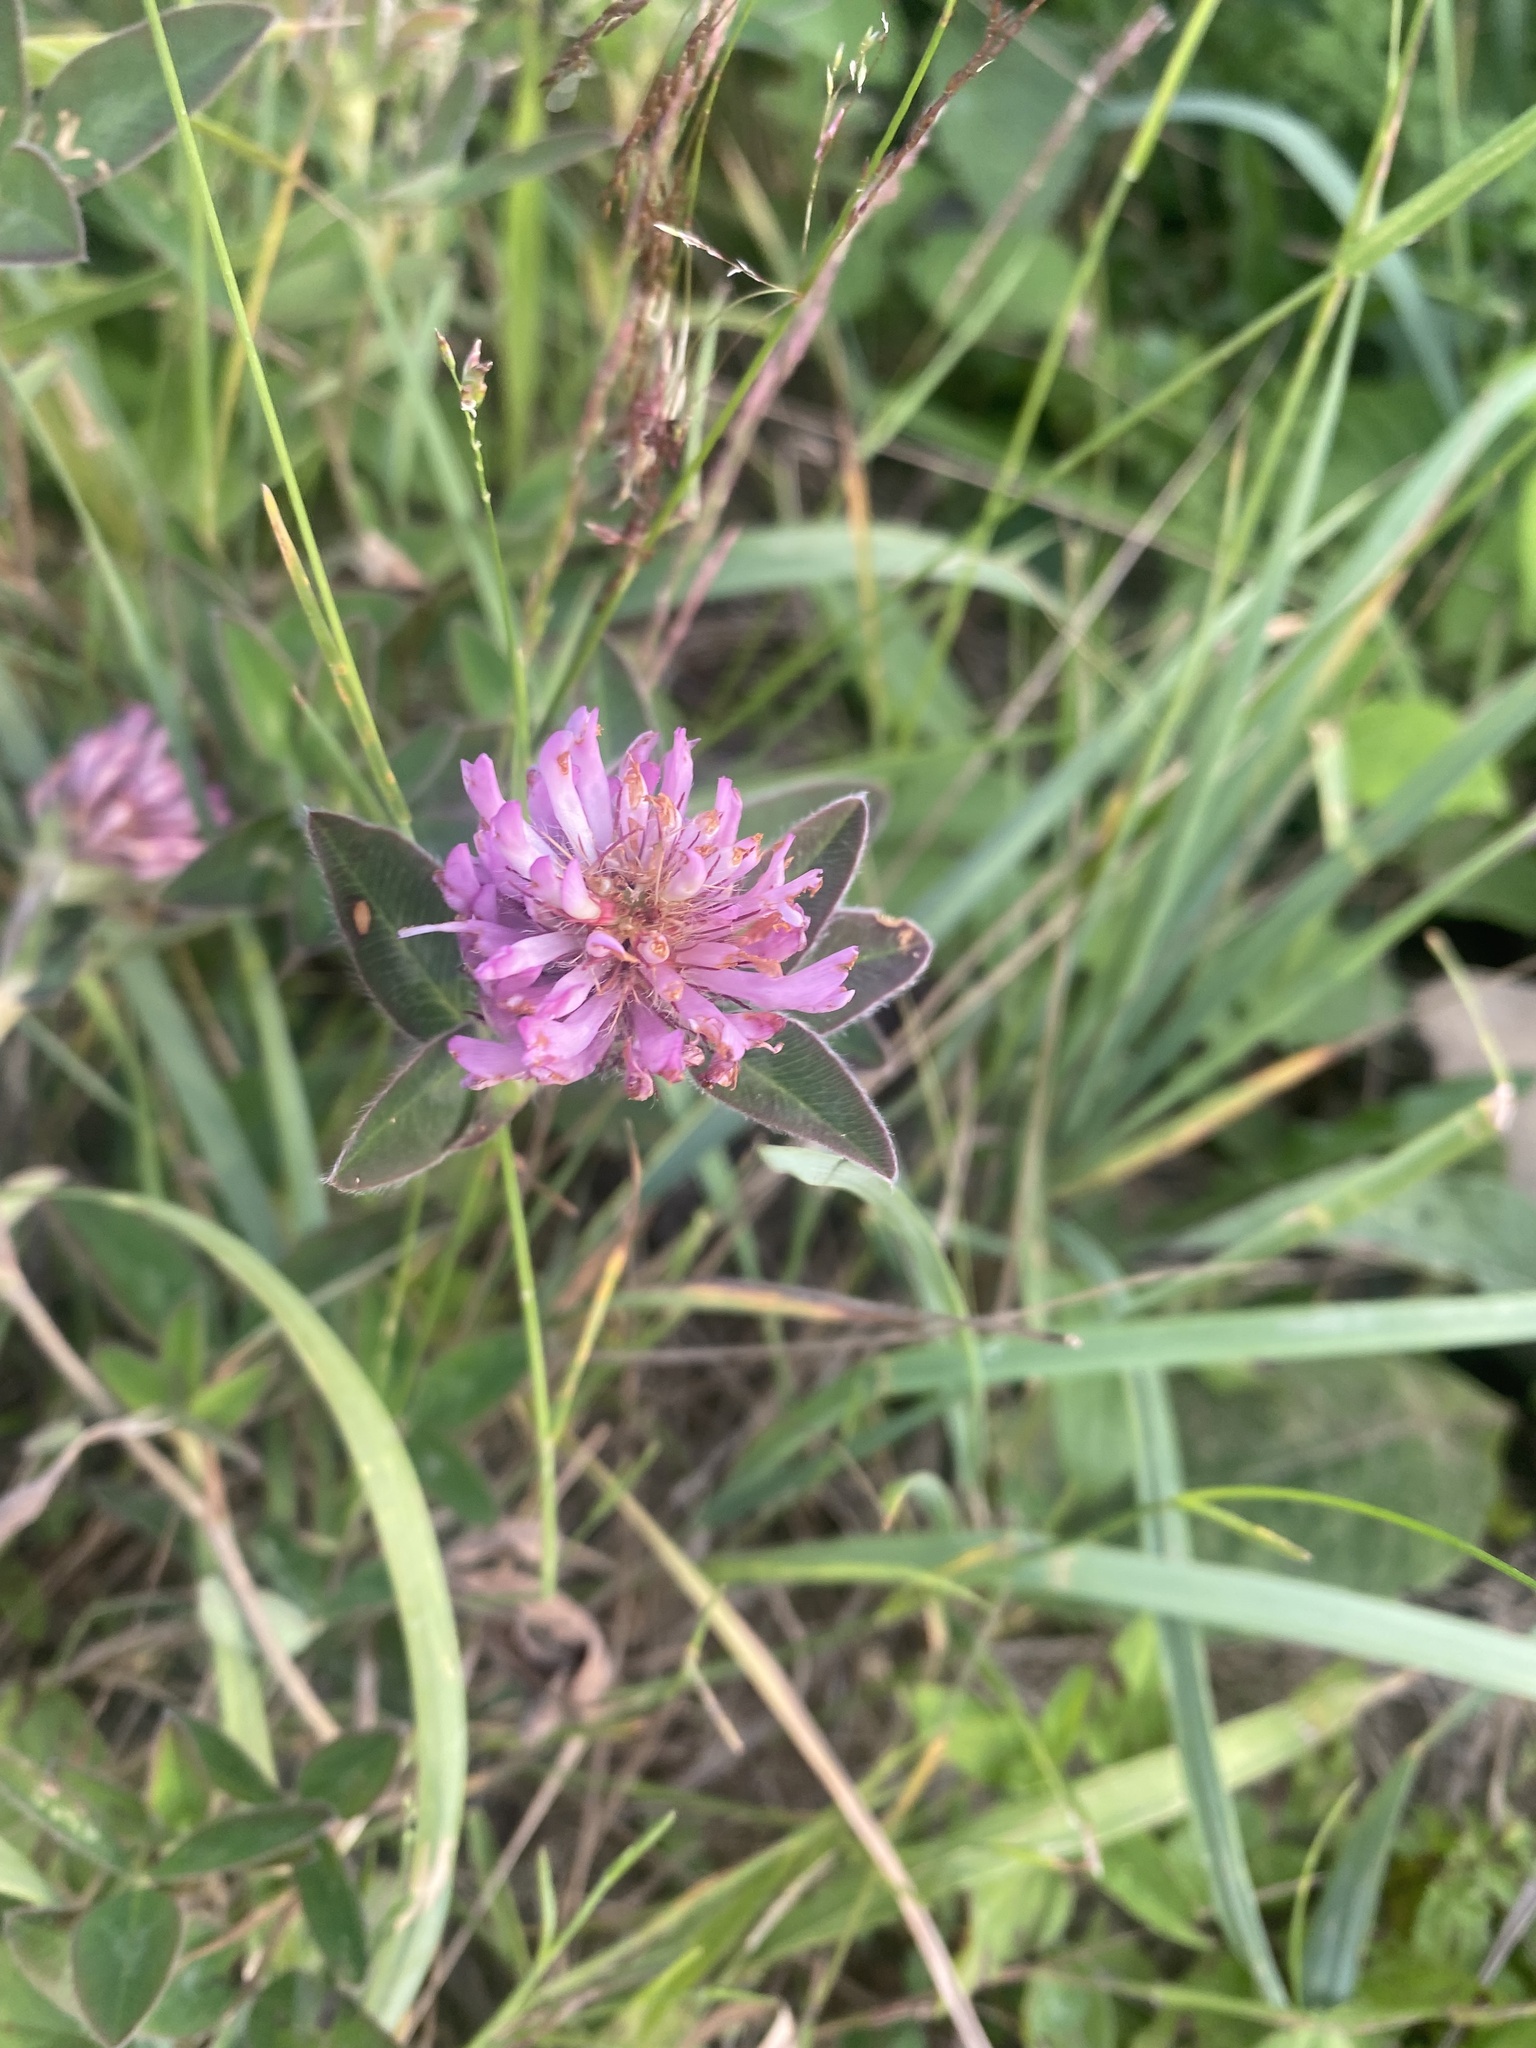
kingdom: Plantae
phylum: Tracheophyta
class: Magnoliopsida
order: Fabales
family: Fabaceae
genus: Trifolium
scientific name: Trifolium pratense
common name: Red clover
